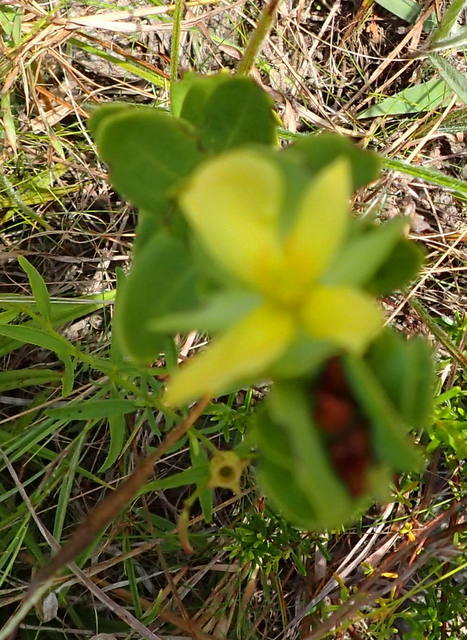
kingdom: Plantae
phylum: Tracheophyta
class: Magnoliopsida
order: Malpighiales
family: Hypericaceae
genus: Hypericum
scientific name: Hypericum crux-andreae
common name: St.-peter's-wort
